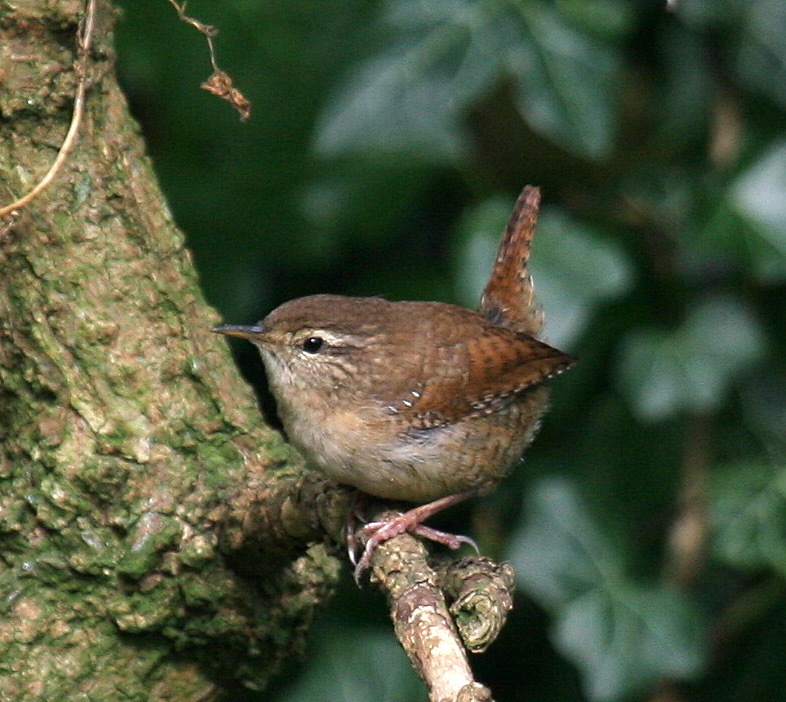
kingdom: Animalia
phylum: Chordata
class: Aves
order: Passeriformes
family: Troglodytidae
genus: Troglodytes
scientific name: Troglodytes troglodytes
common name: Eurasian wren
